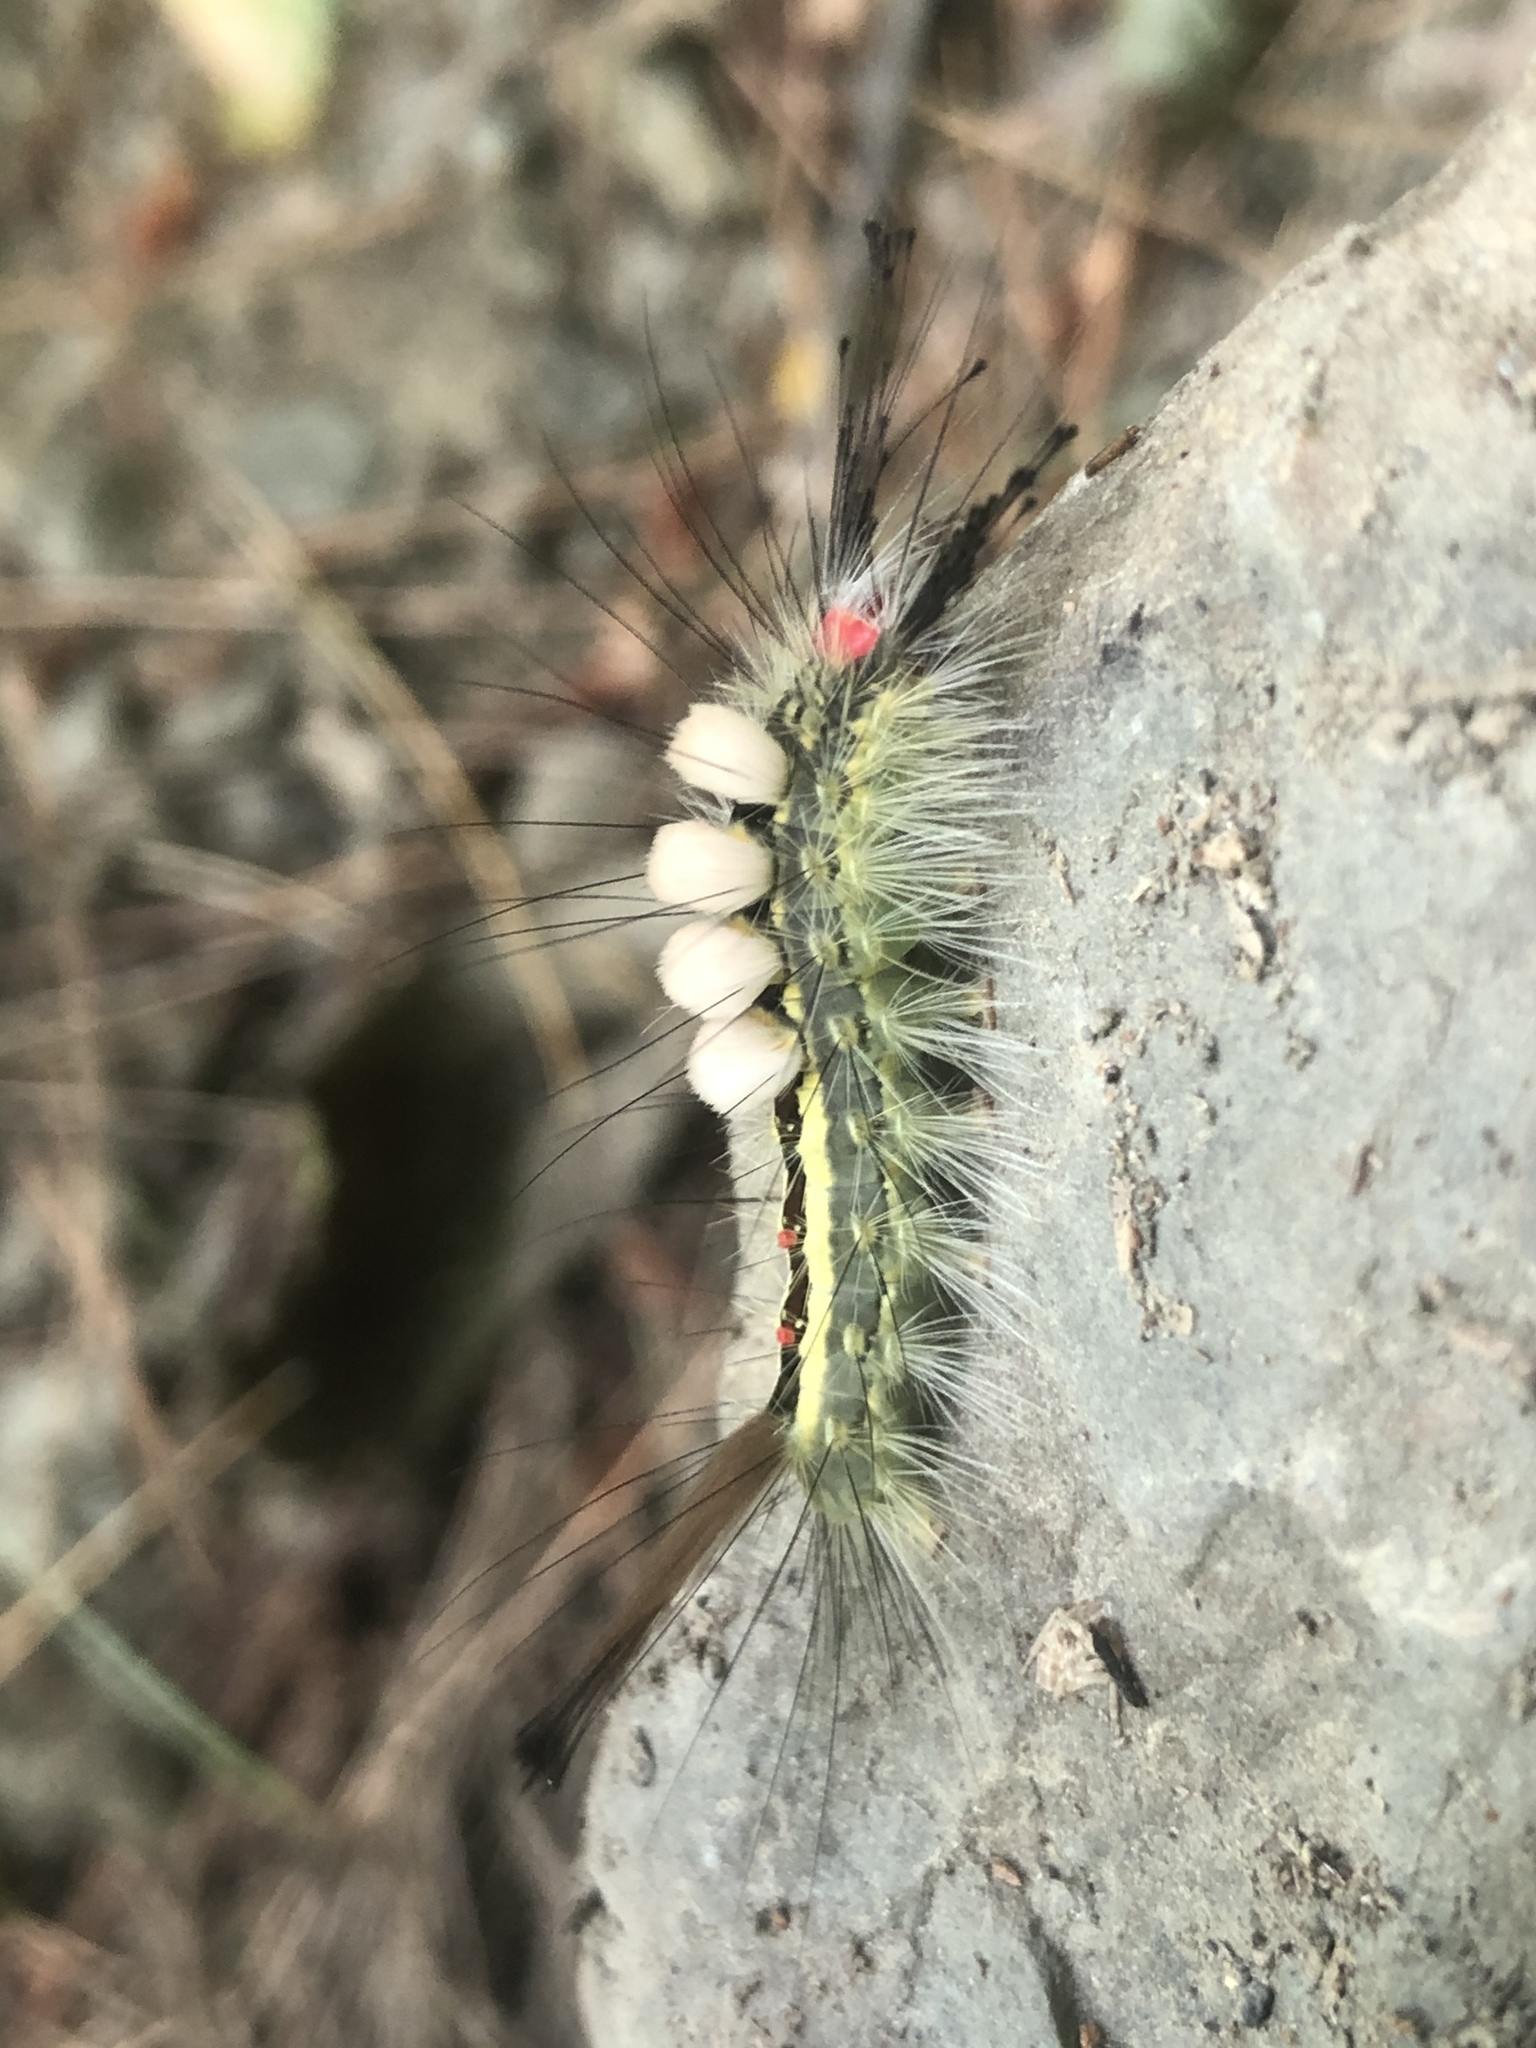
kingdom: Animalia
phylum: Arthropoda
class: Insecta
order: Lepidoptera
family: Erebidae
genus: Orgyia
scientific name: Orgyia leucostigma
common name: White-marked tussock moth
